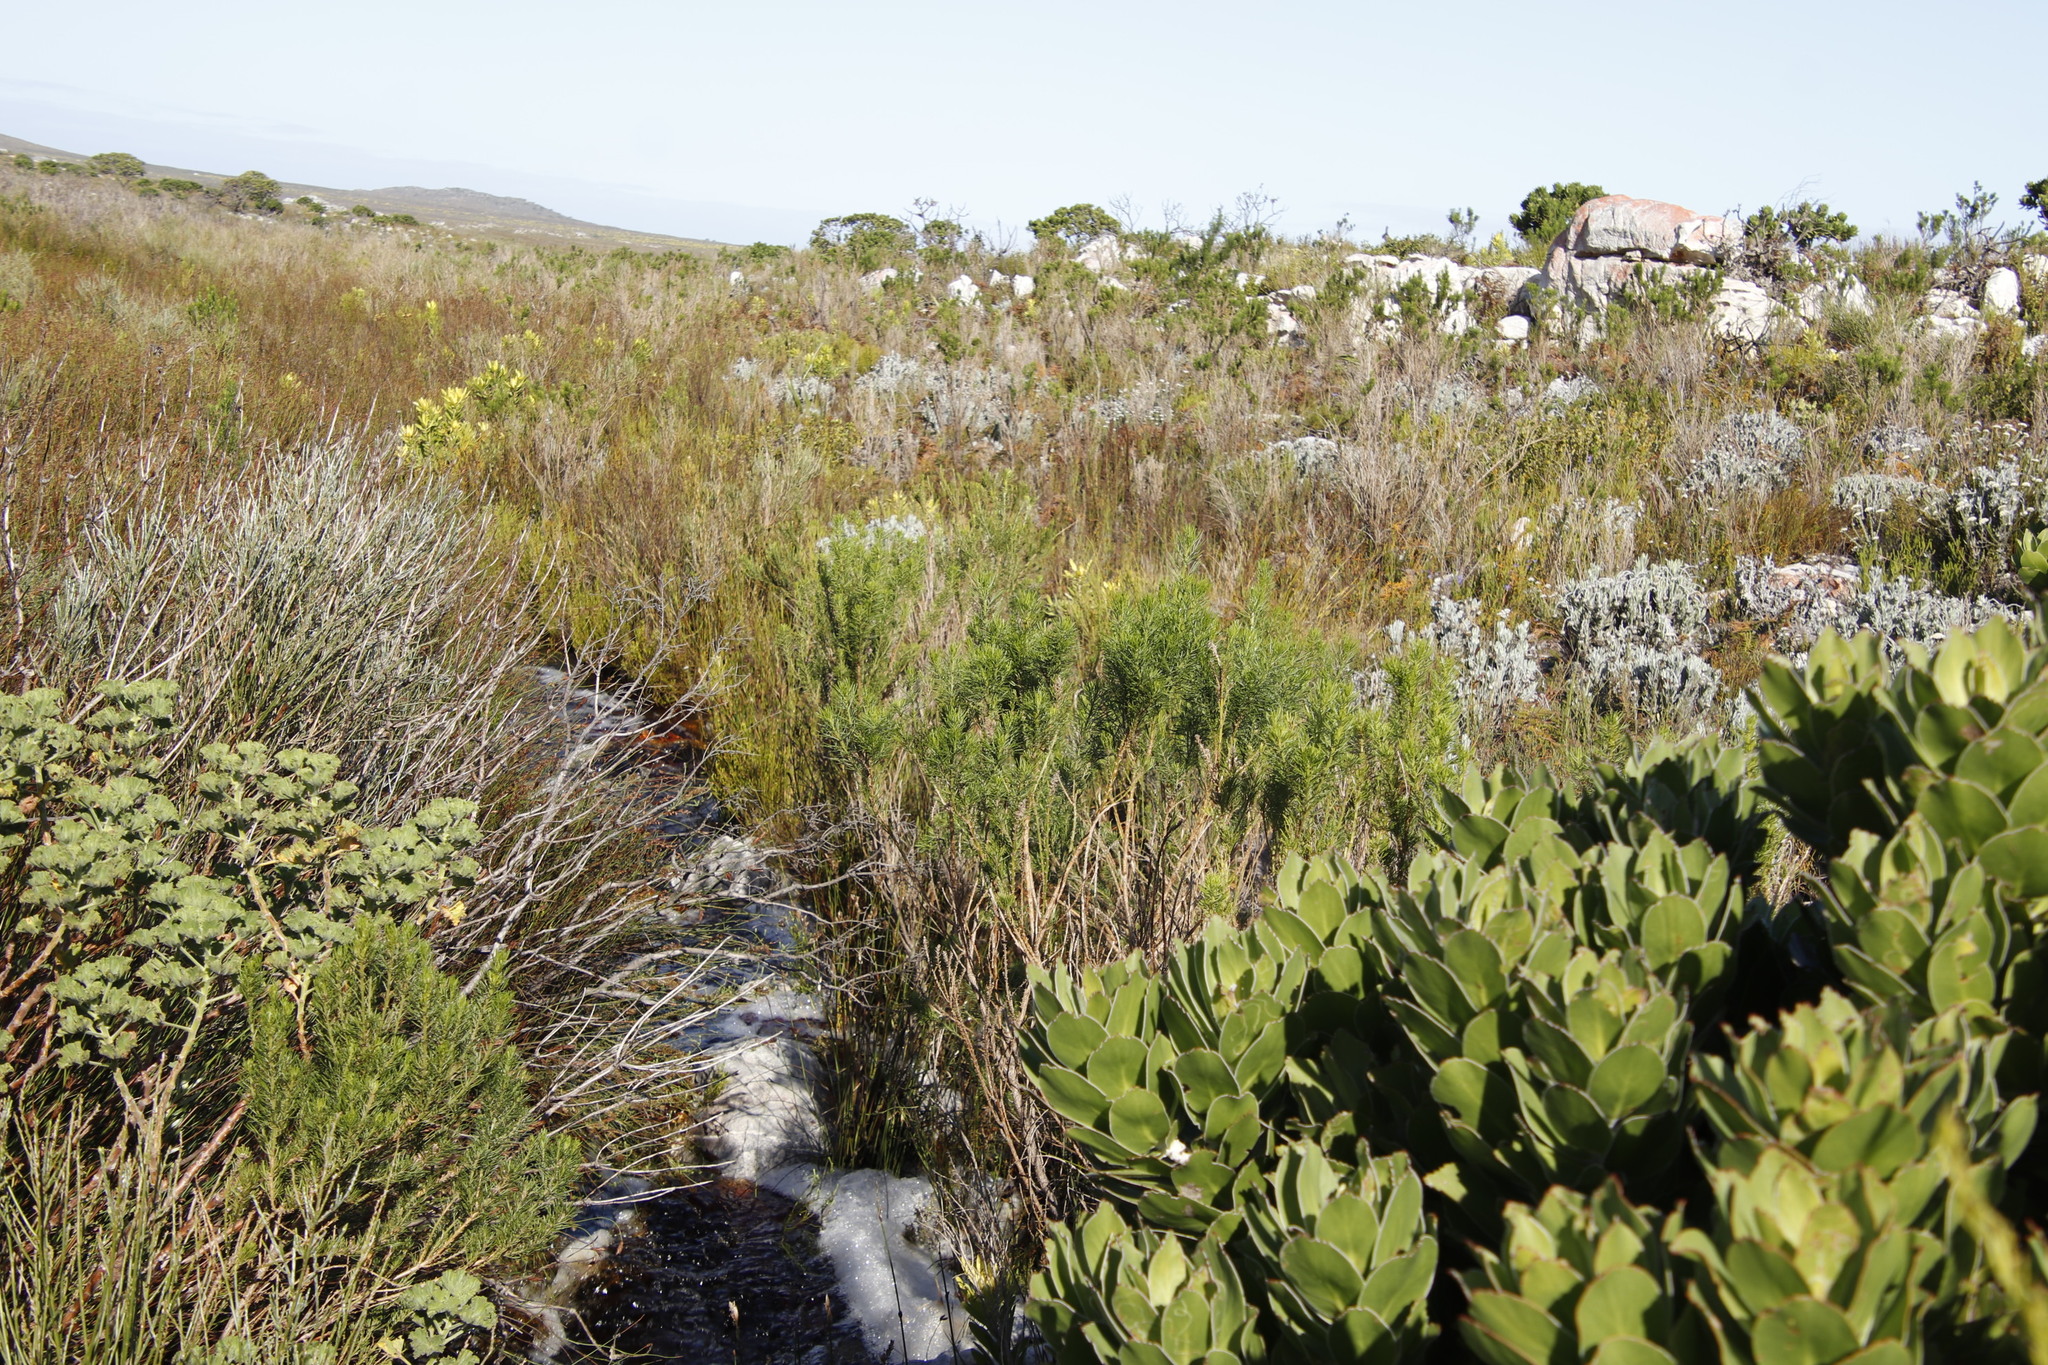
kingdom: Plantae
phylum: Tracheophyta
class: Magnoliopsida
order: Fabales
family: Fabaceae
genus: Psoralea
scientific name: Psoralea pinnata
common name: African scurfpea
